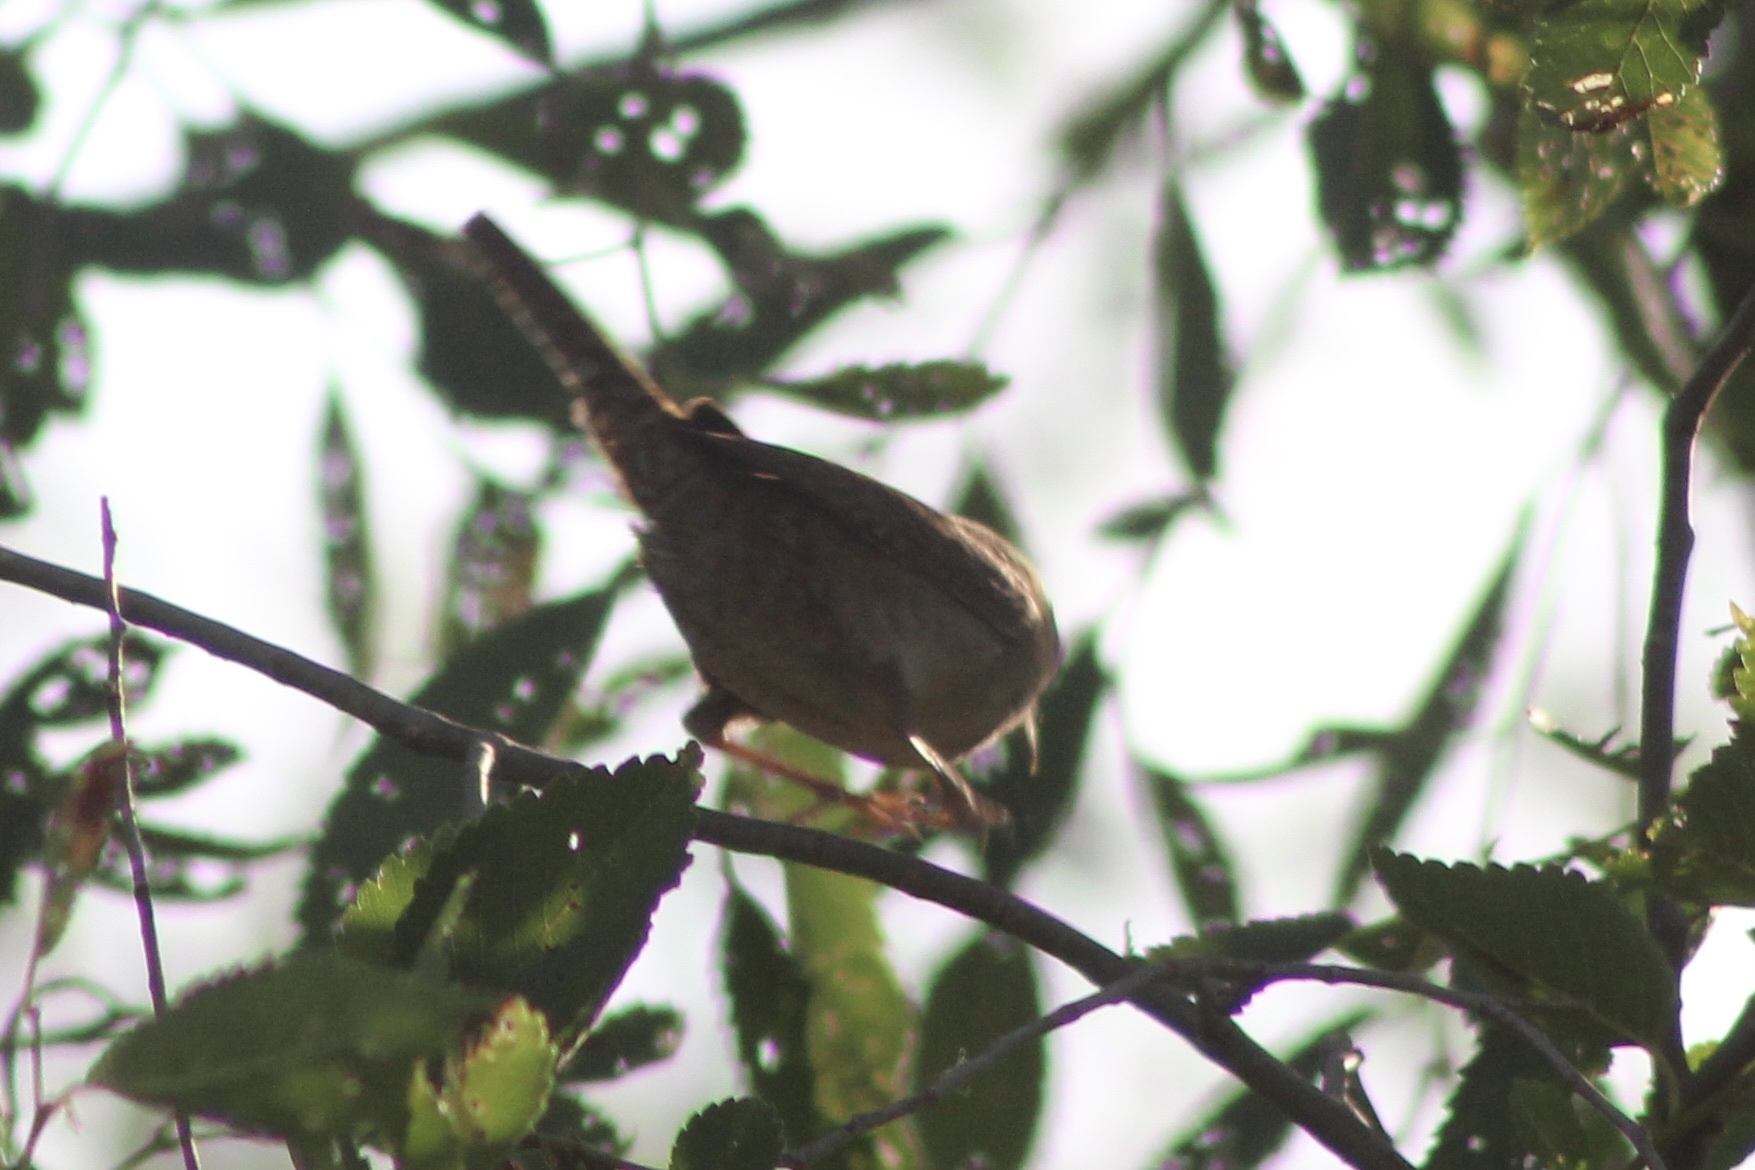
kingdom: Animalia
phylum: Chordata
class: Aves
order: Passeriformes
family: Troglodytidae
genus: Troglodytes
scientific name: Troglodytes aedon
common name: House wren
